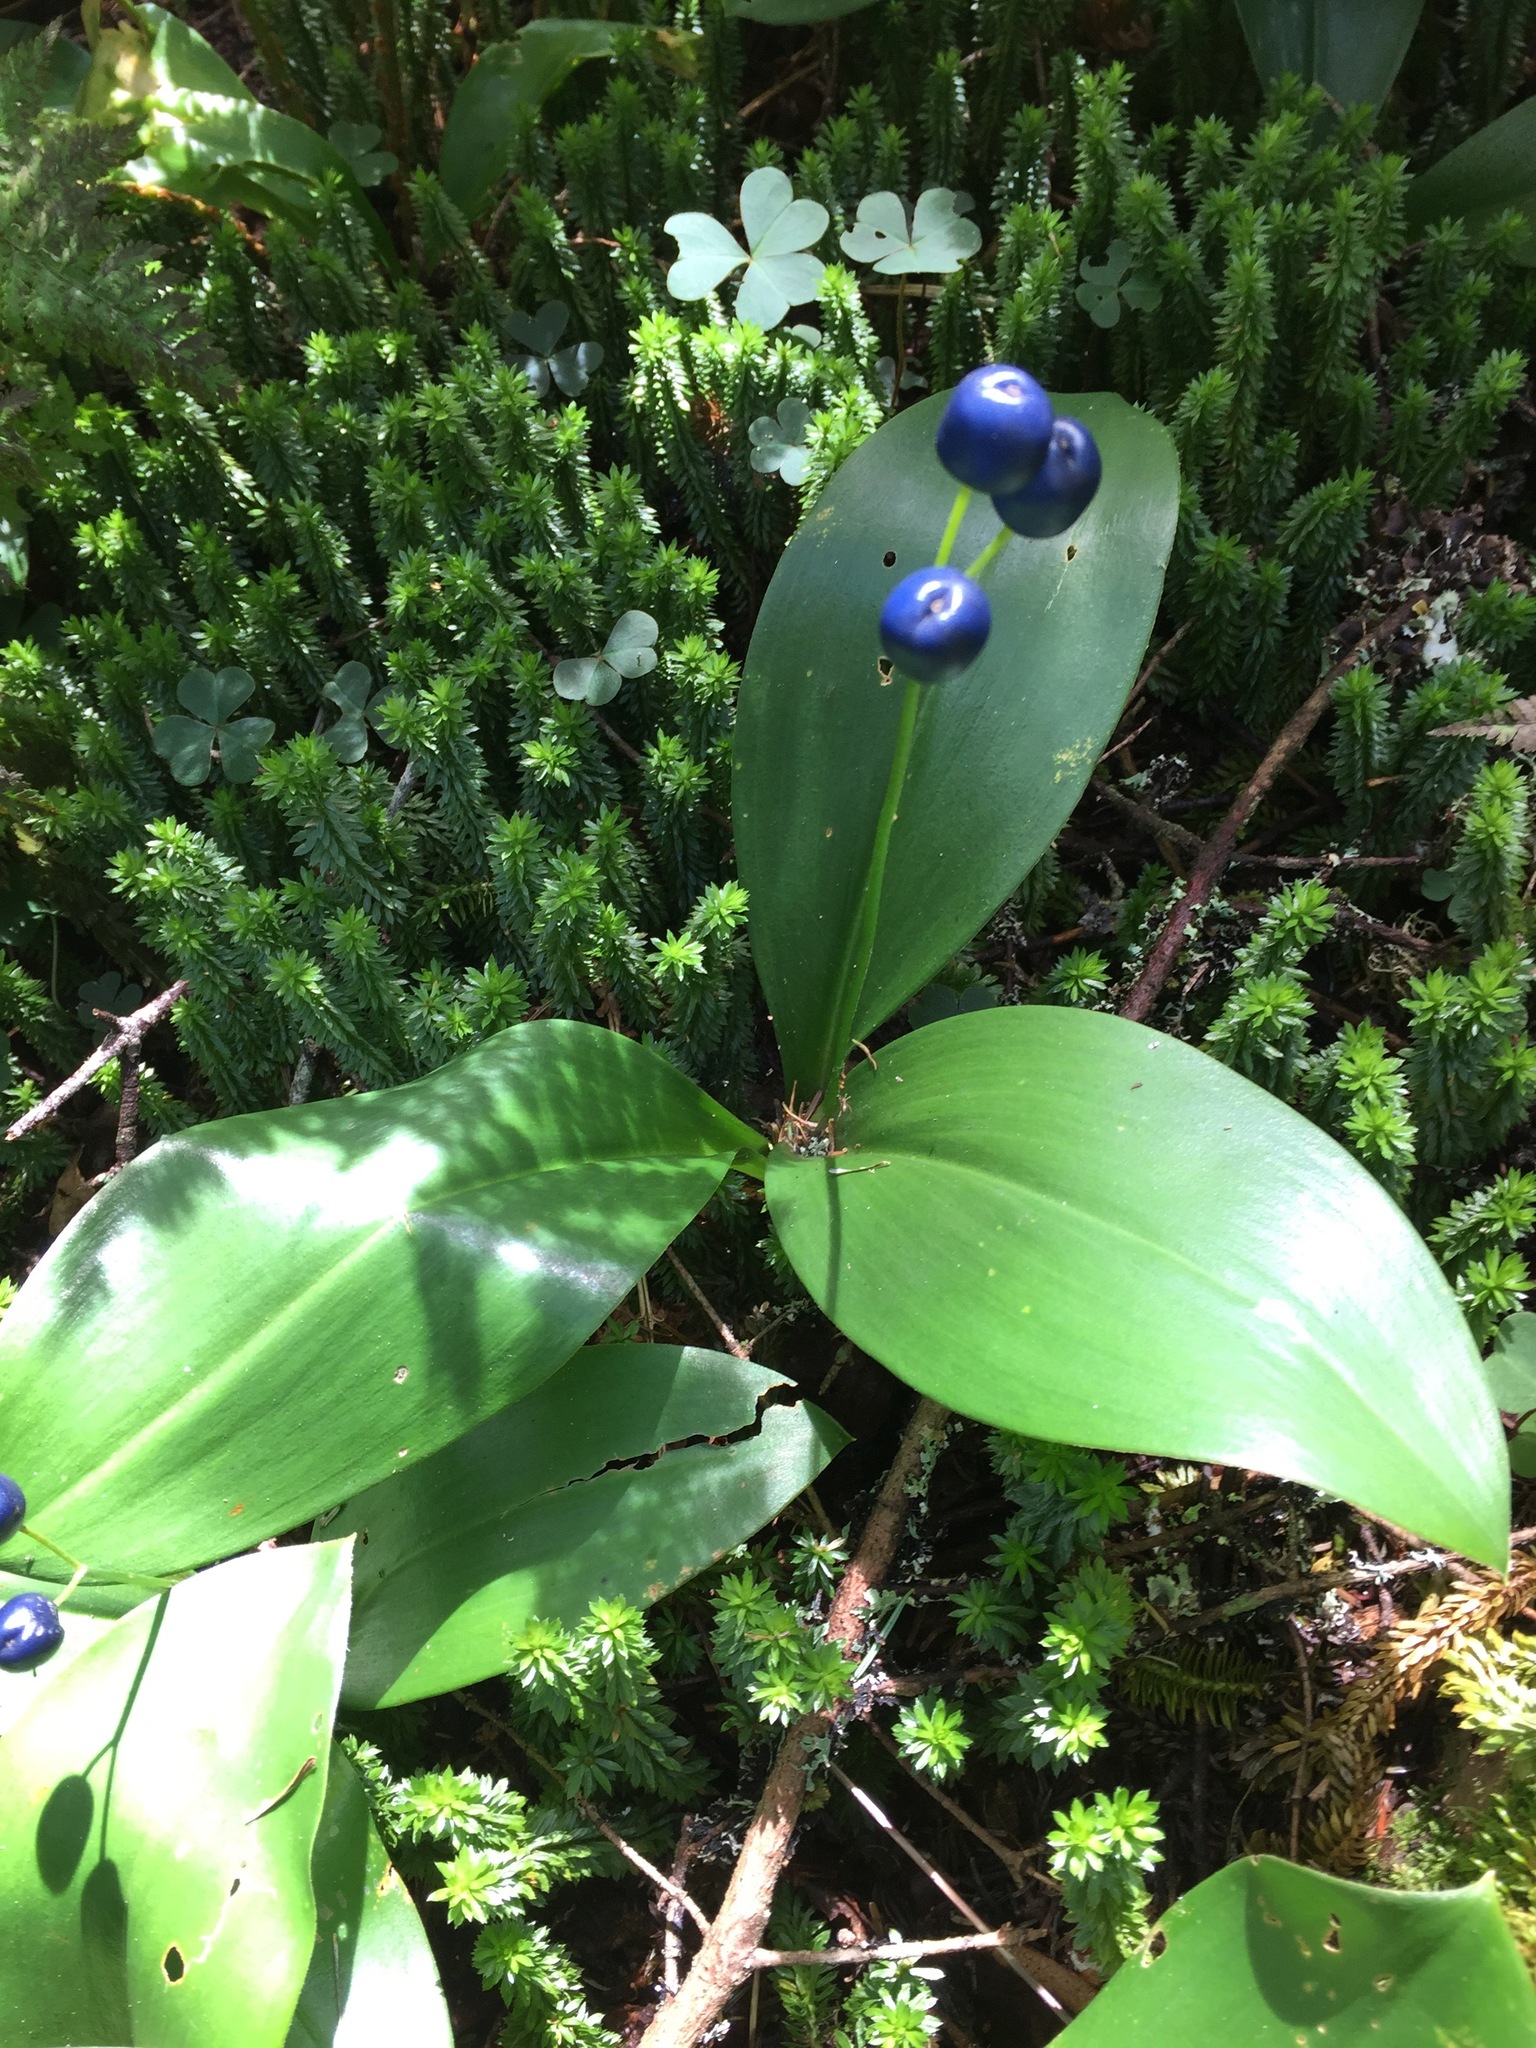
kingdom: Plantae
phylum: Tracheophyta
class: Liliopsida
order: Liliales
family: Liliaceae
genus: Clintonia
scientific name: Clintonia borealis
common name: Yellow clintonia
